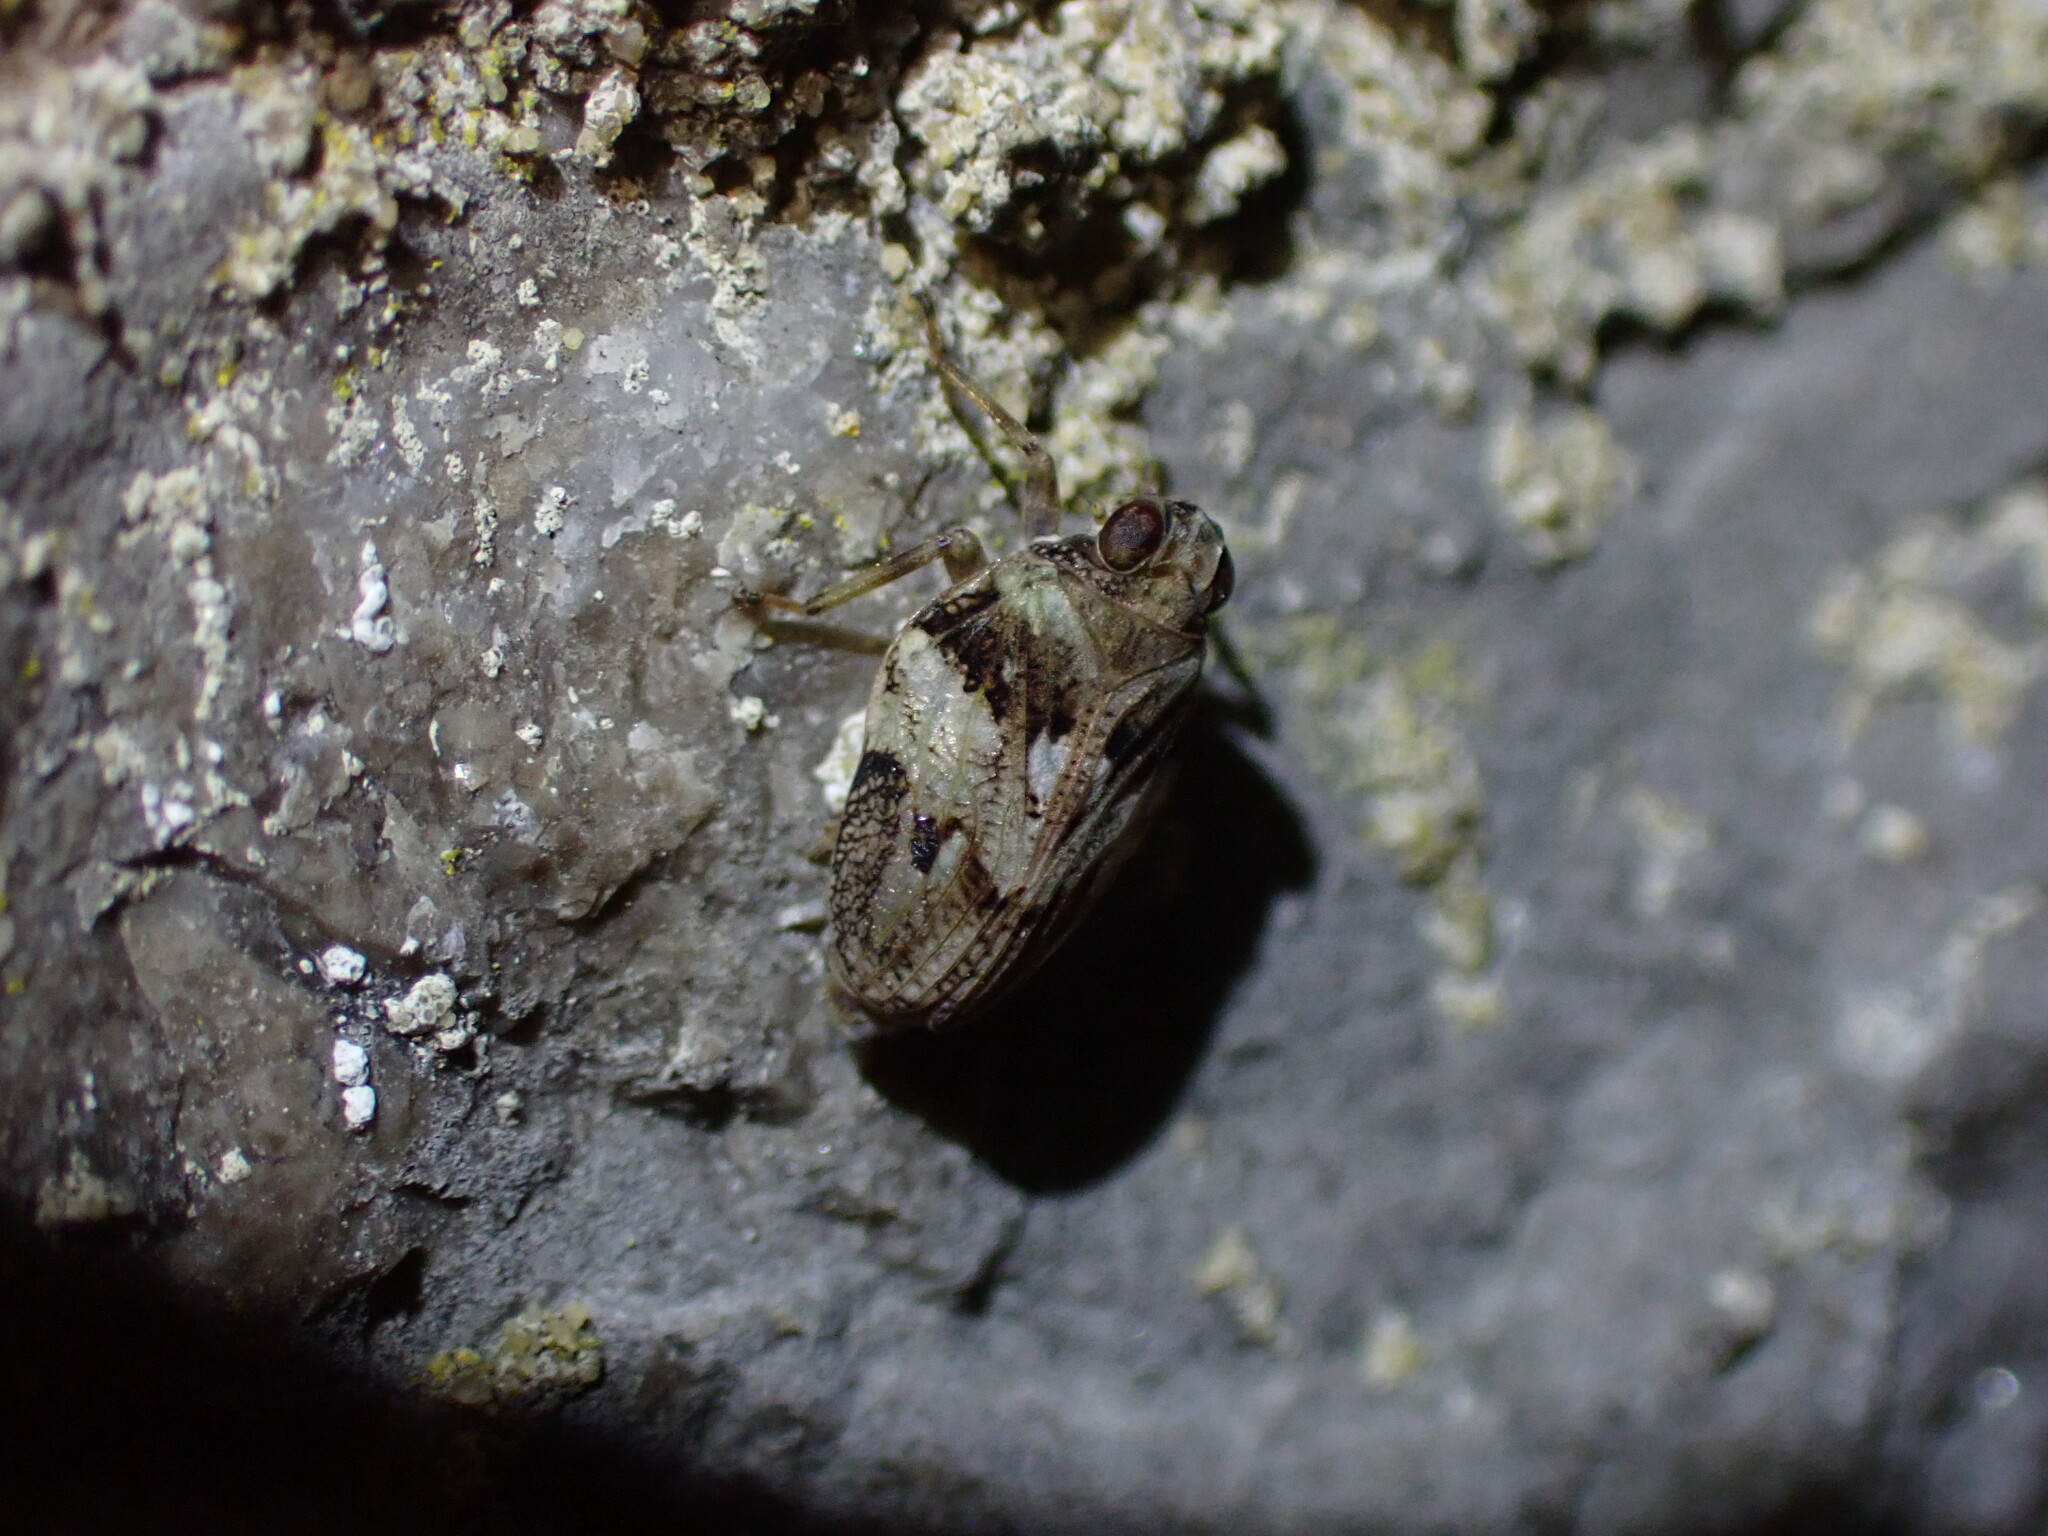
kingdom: Animalia
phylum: Arthropoda
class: Insecta
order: Hemiptera
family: Issidae
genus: Issus
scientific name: Issus coleoptratus
